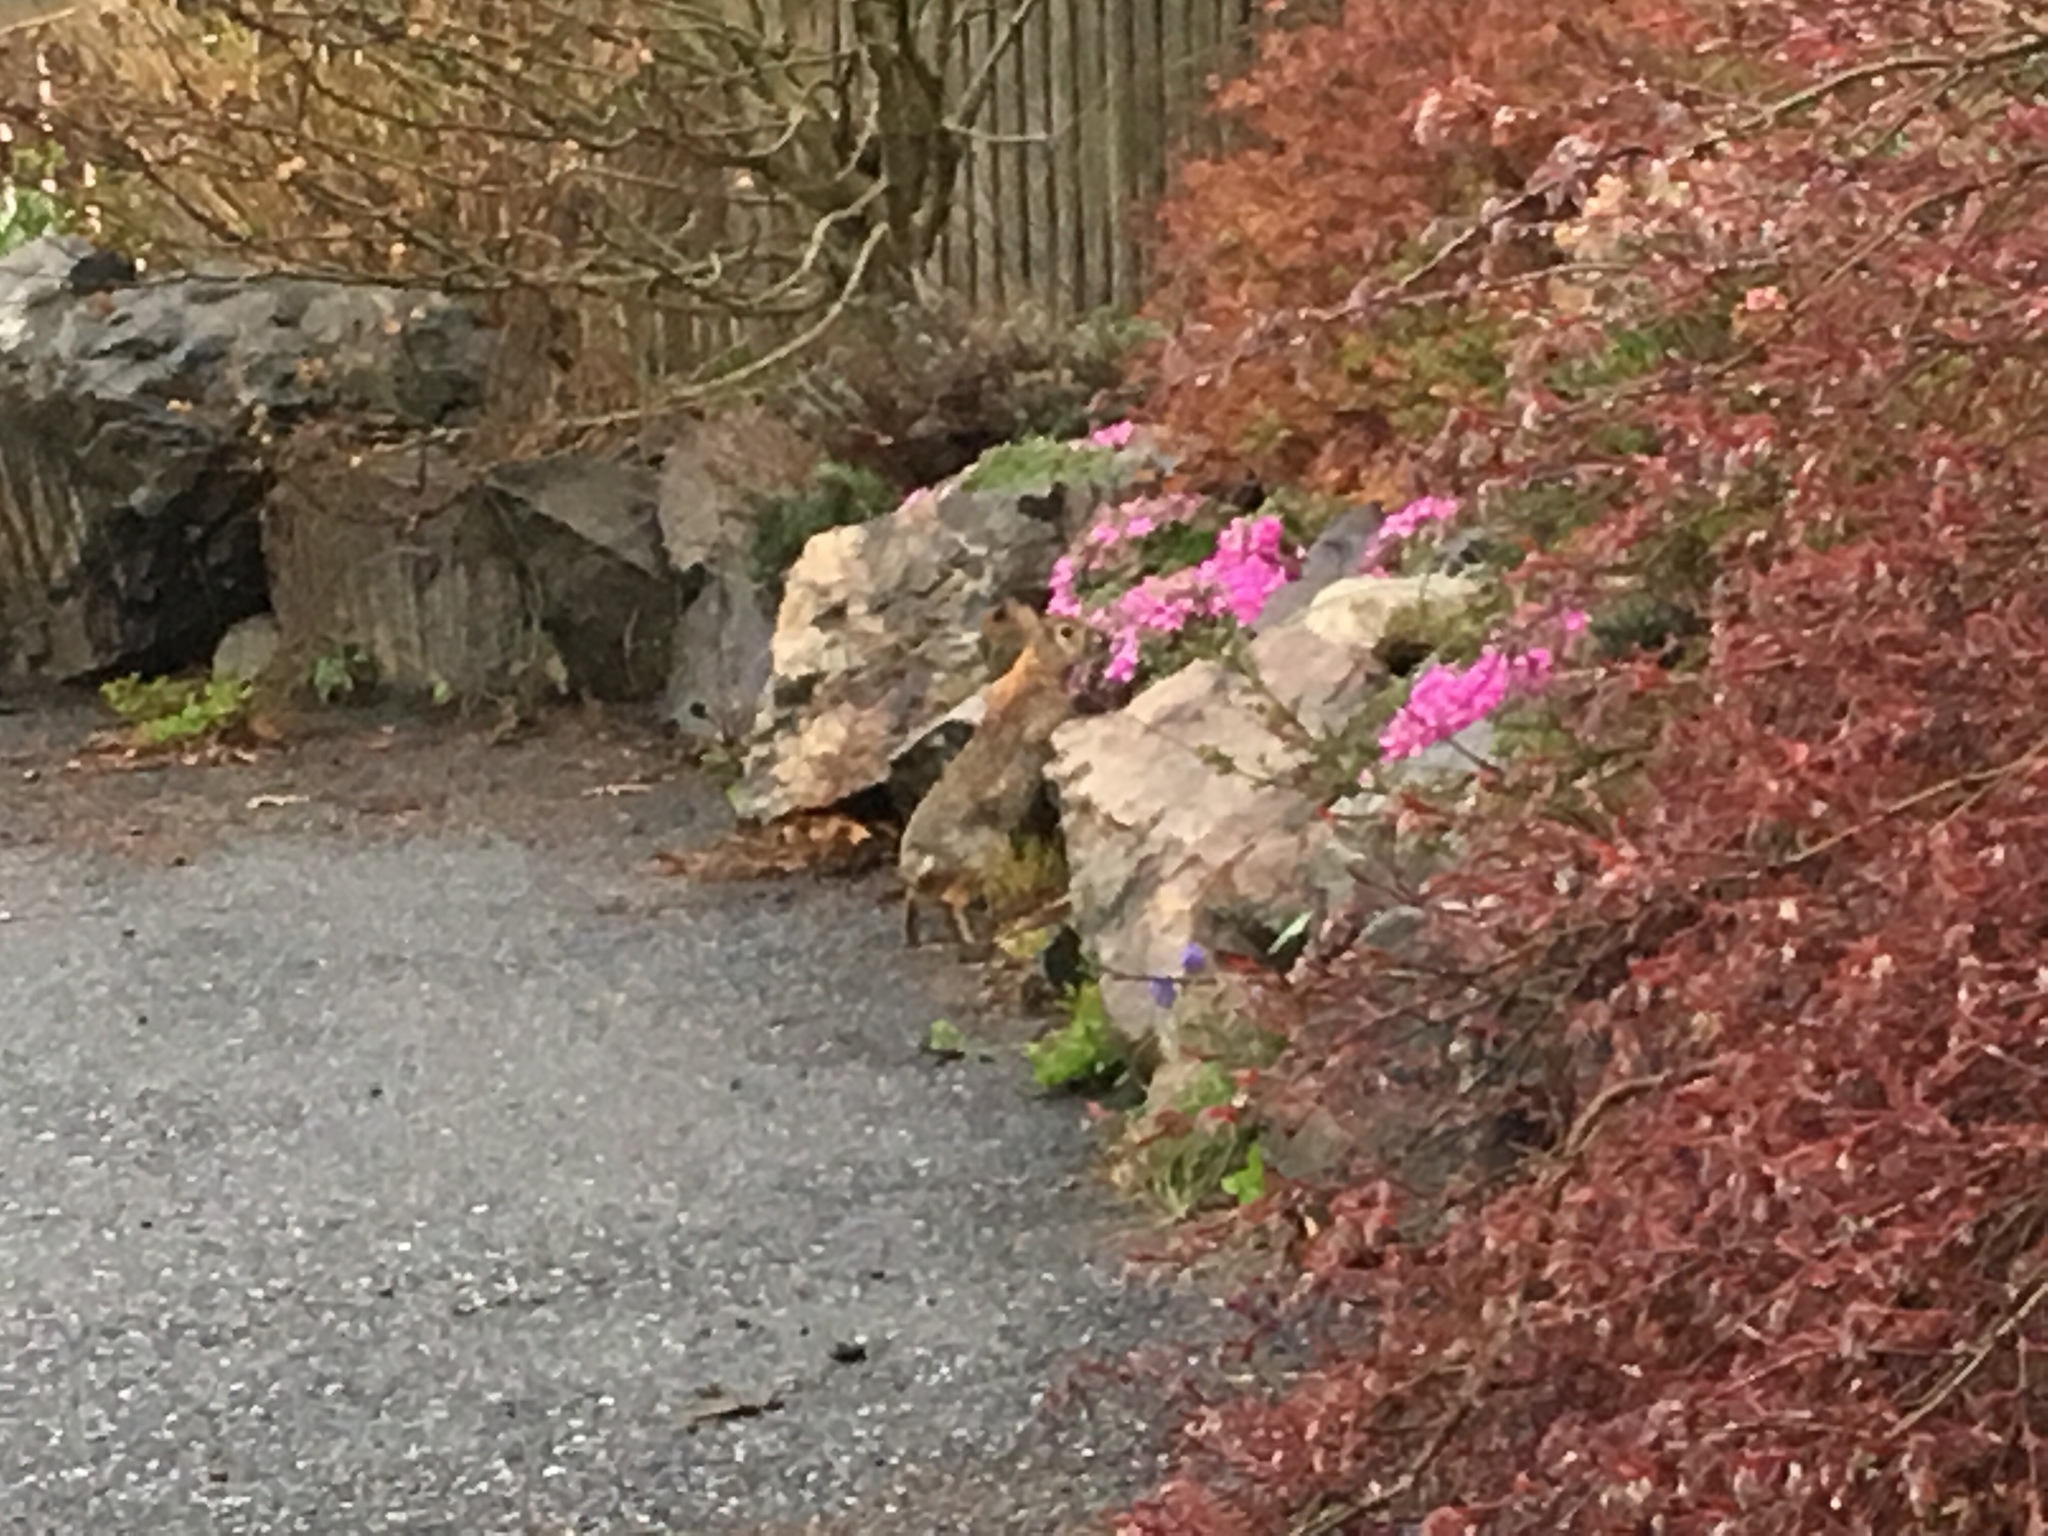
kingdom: Animalia
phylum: Chordata
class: Mammalia
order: Lagomorpha
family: Leporidae
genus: Sylvilagus
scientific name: Sylvilagus floridanus
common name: Eastern cottontail
